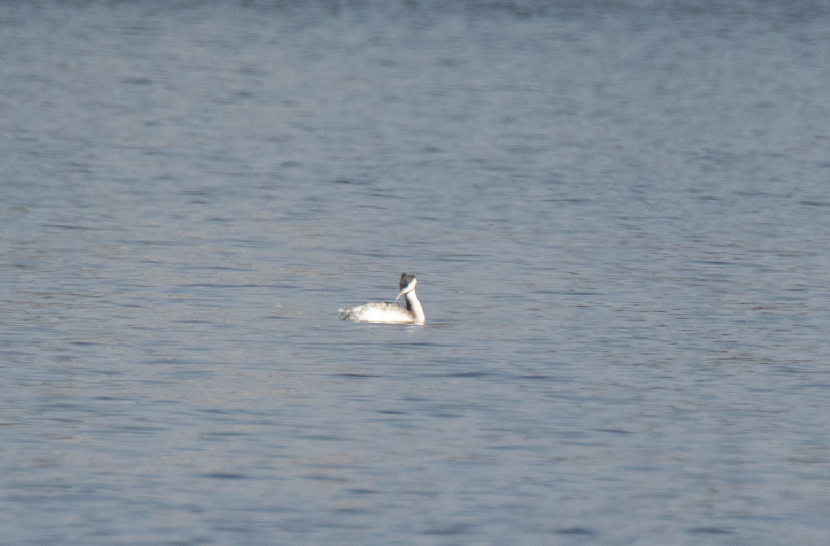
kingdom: Animalia
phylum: Chordata
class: Aves
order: Podicipediformes
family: Podicipedidae
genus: Podiceps
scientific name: Podiceps cristatus
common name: Great crested grebe
